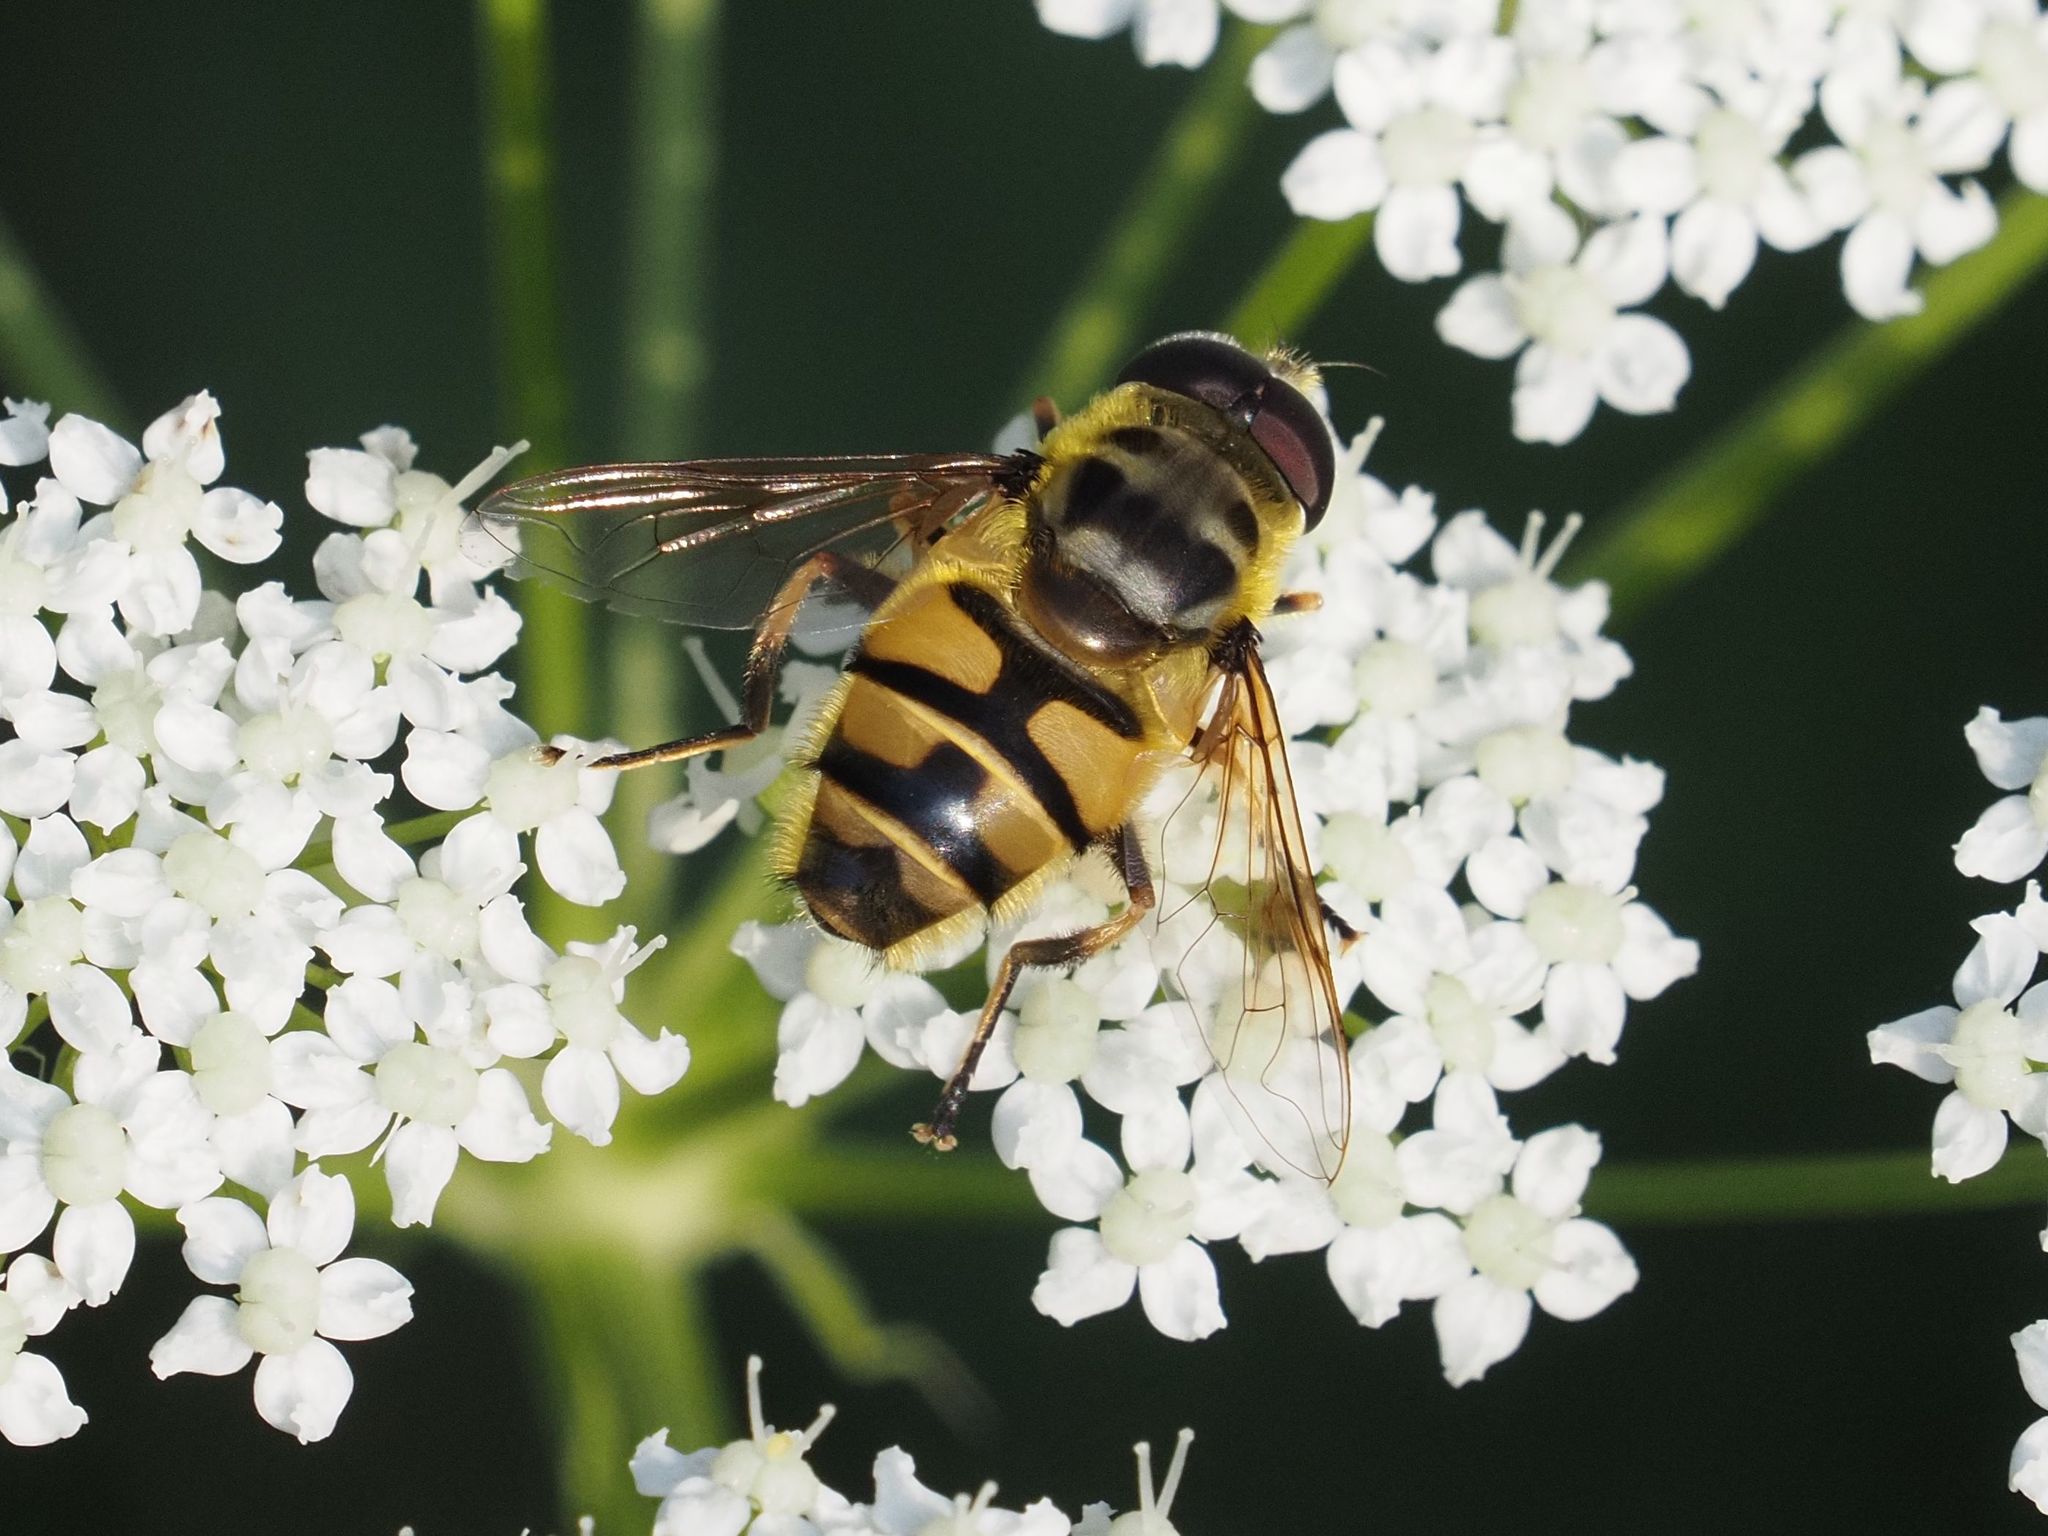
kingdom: Animalia
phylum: Arthropoda
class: Insecta
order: Diptera
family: Syrphidae
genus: Myathropa
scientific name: Myathropa florea
